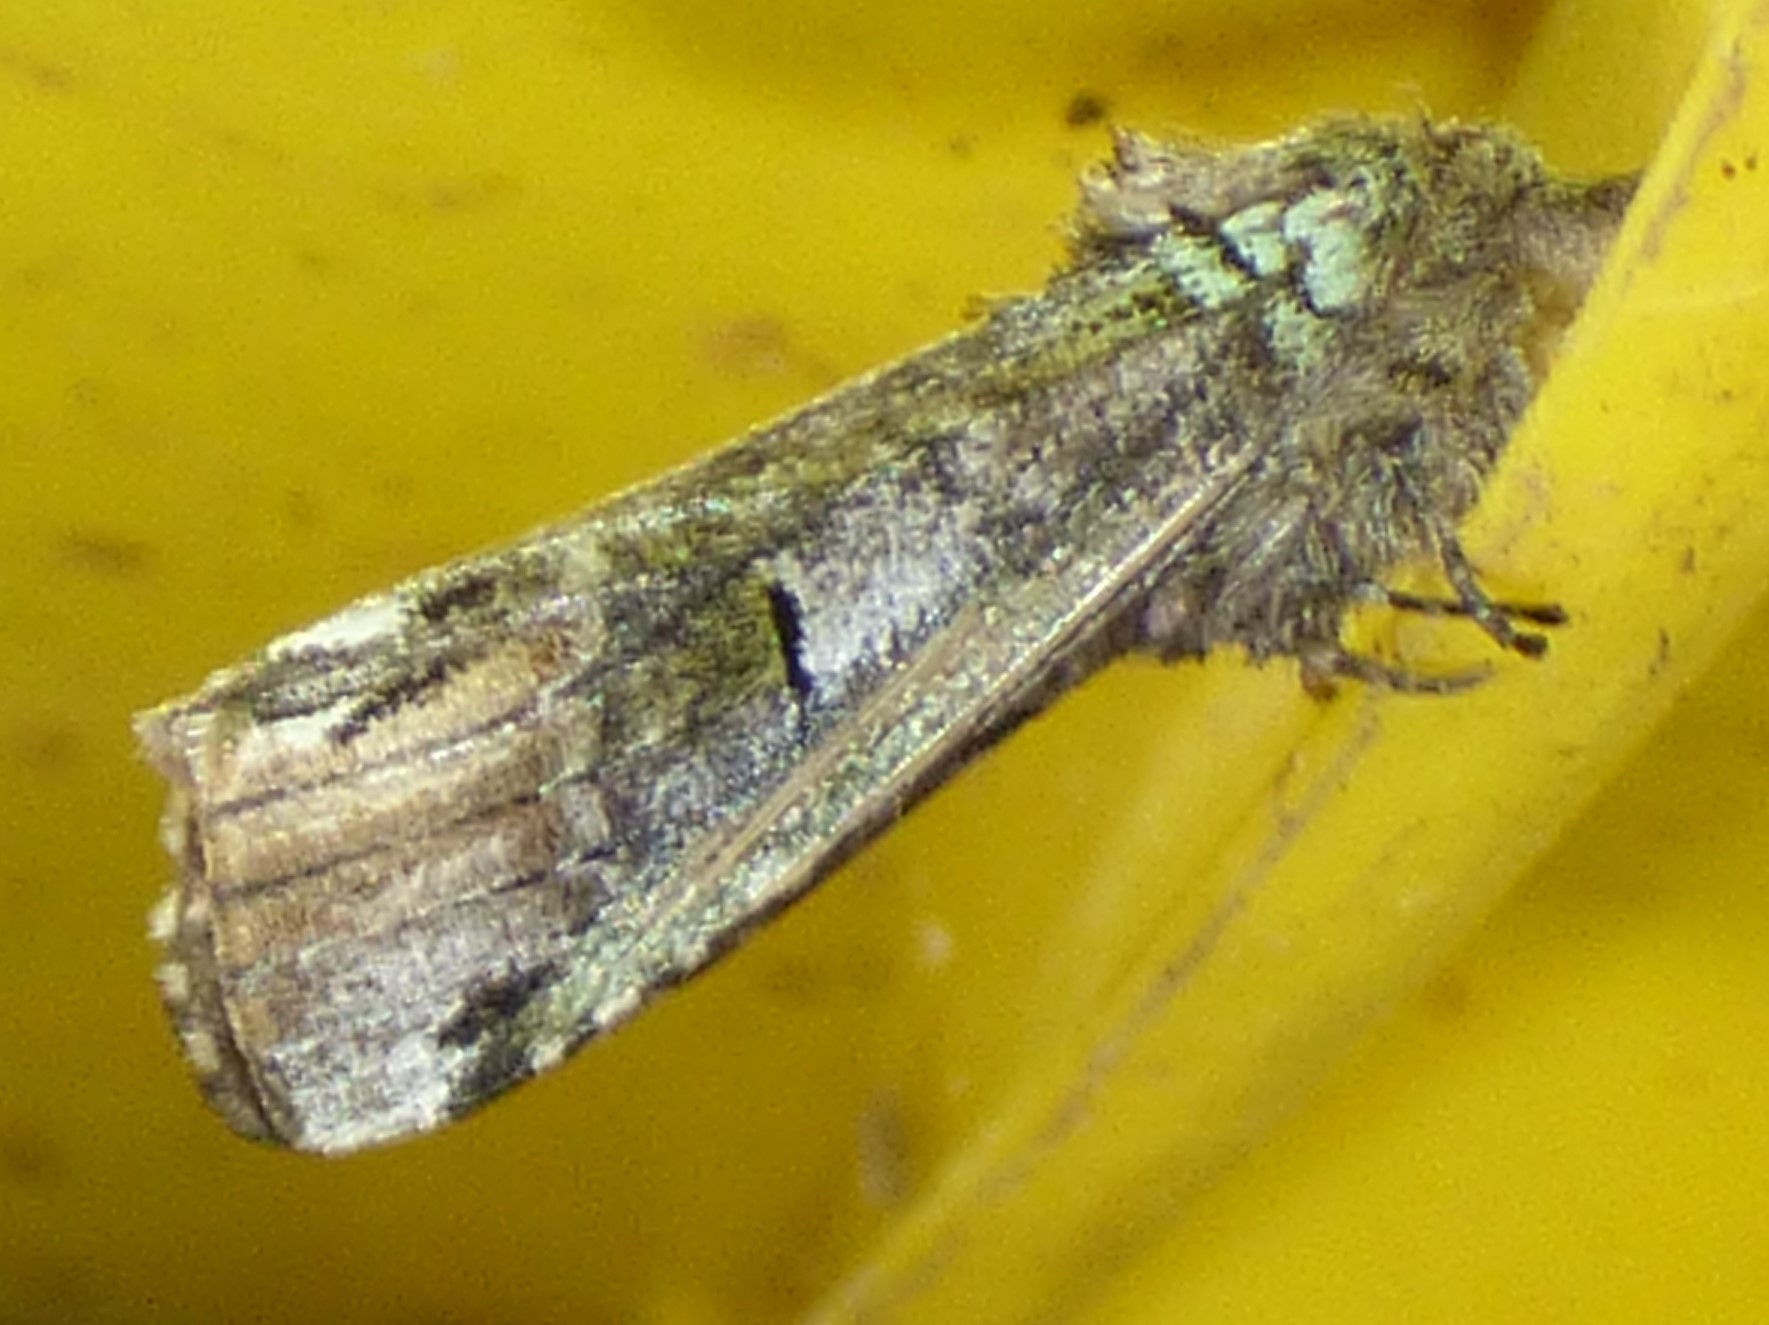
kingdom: Animalia
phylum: Arthropoda
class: Insecta
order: Lepidoptera
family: Notodontidae
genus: Schizura
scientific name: Schizura
